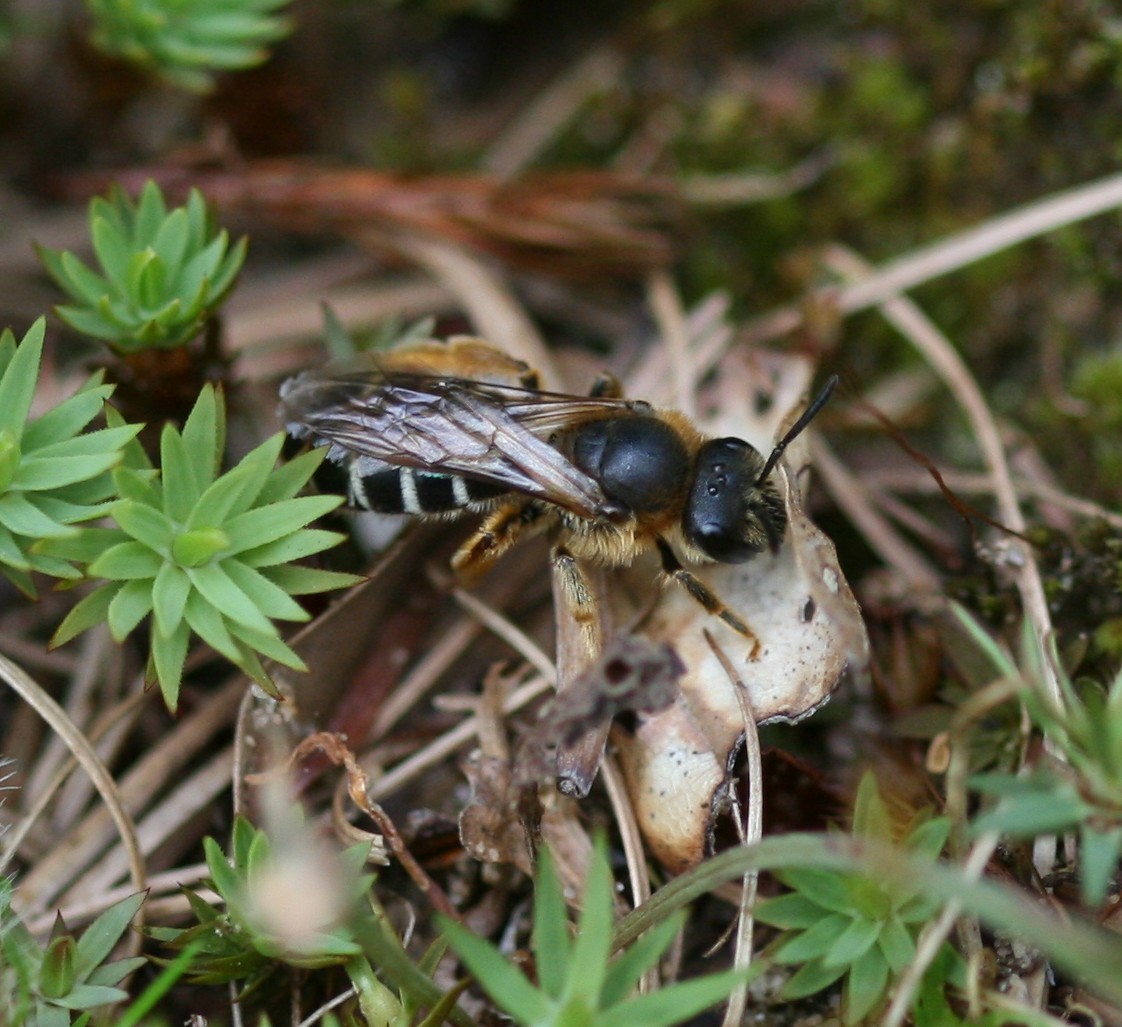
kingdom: Animalia
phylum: Arthropoda
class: Insecta
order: Hymenoptera
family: Halictidae
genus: Halictus
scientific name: Halictus rubicundus
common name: Orange-legged furrow bee
